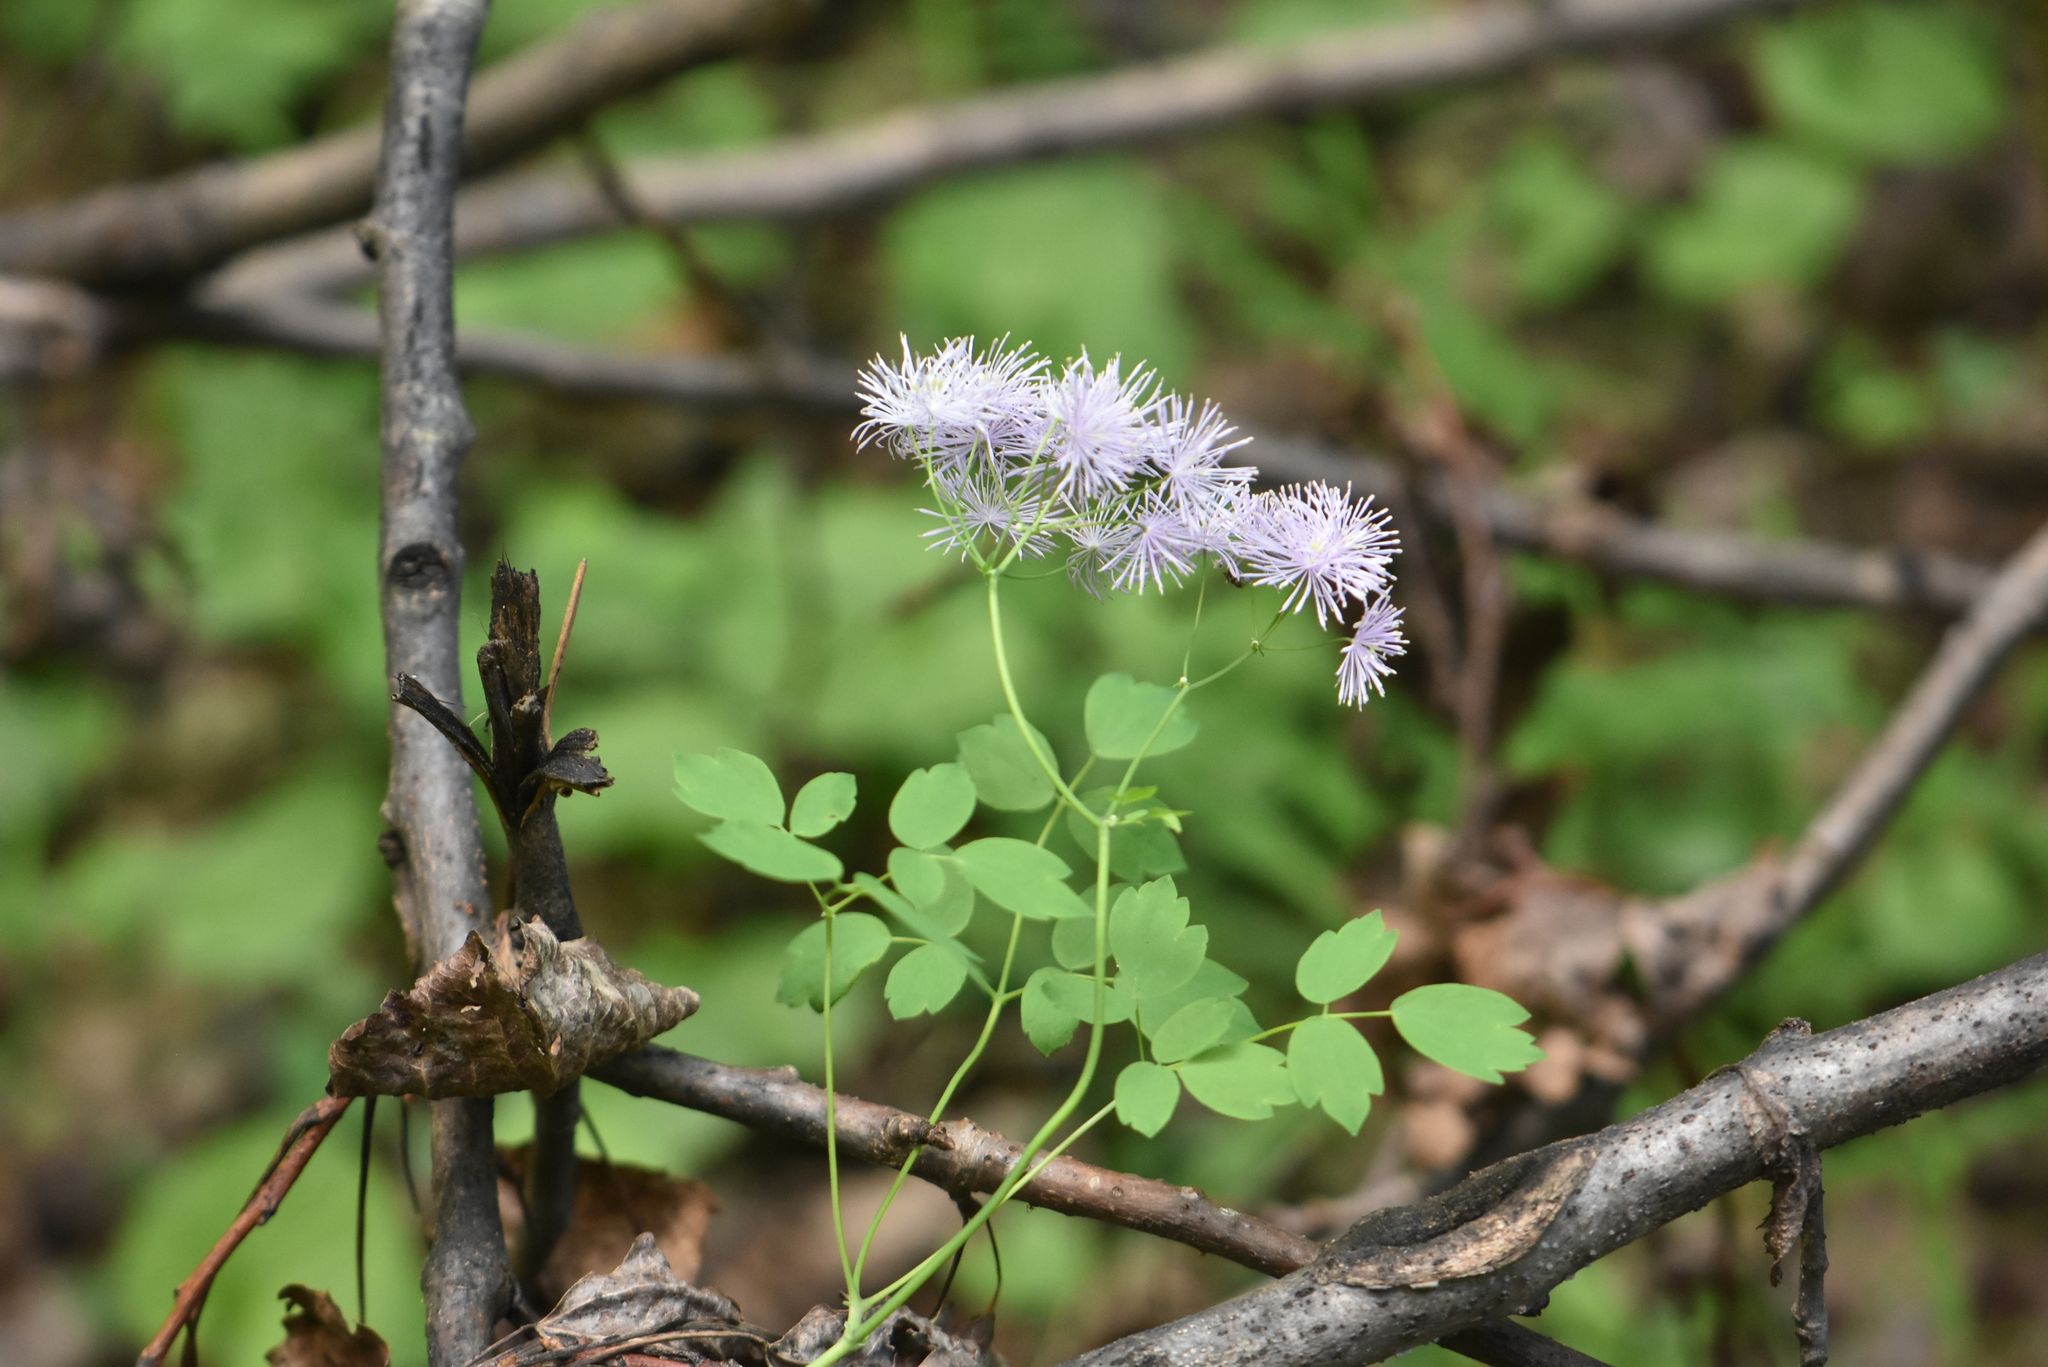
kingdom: Plantae
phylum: Tracheophyta
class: Magnoliopsida
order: Ranunculales
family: Ranunculaceae
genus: Thalictrum
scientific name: Thalictrum aquilegiifolium
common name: French meadow-rue
